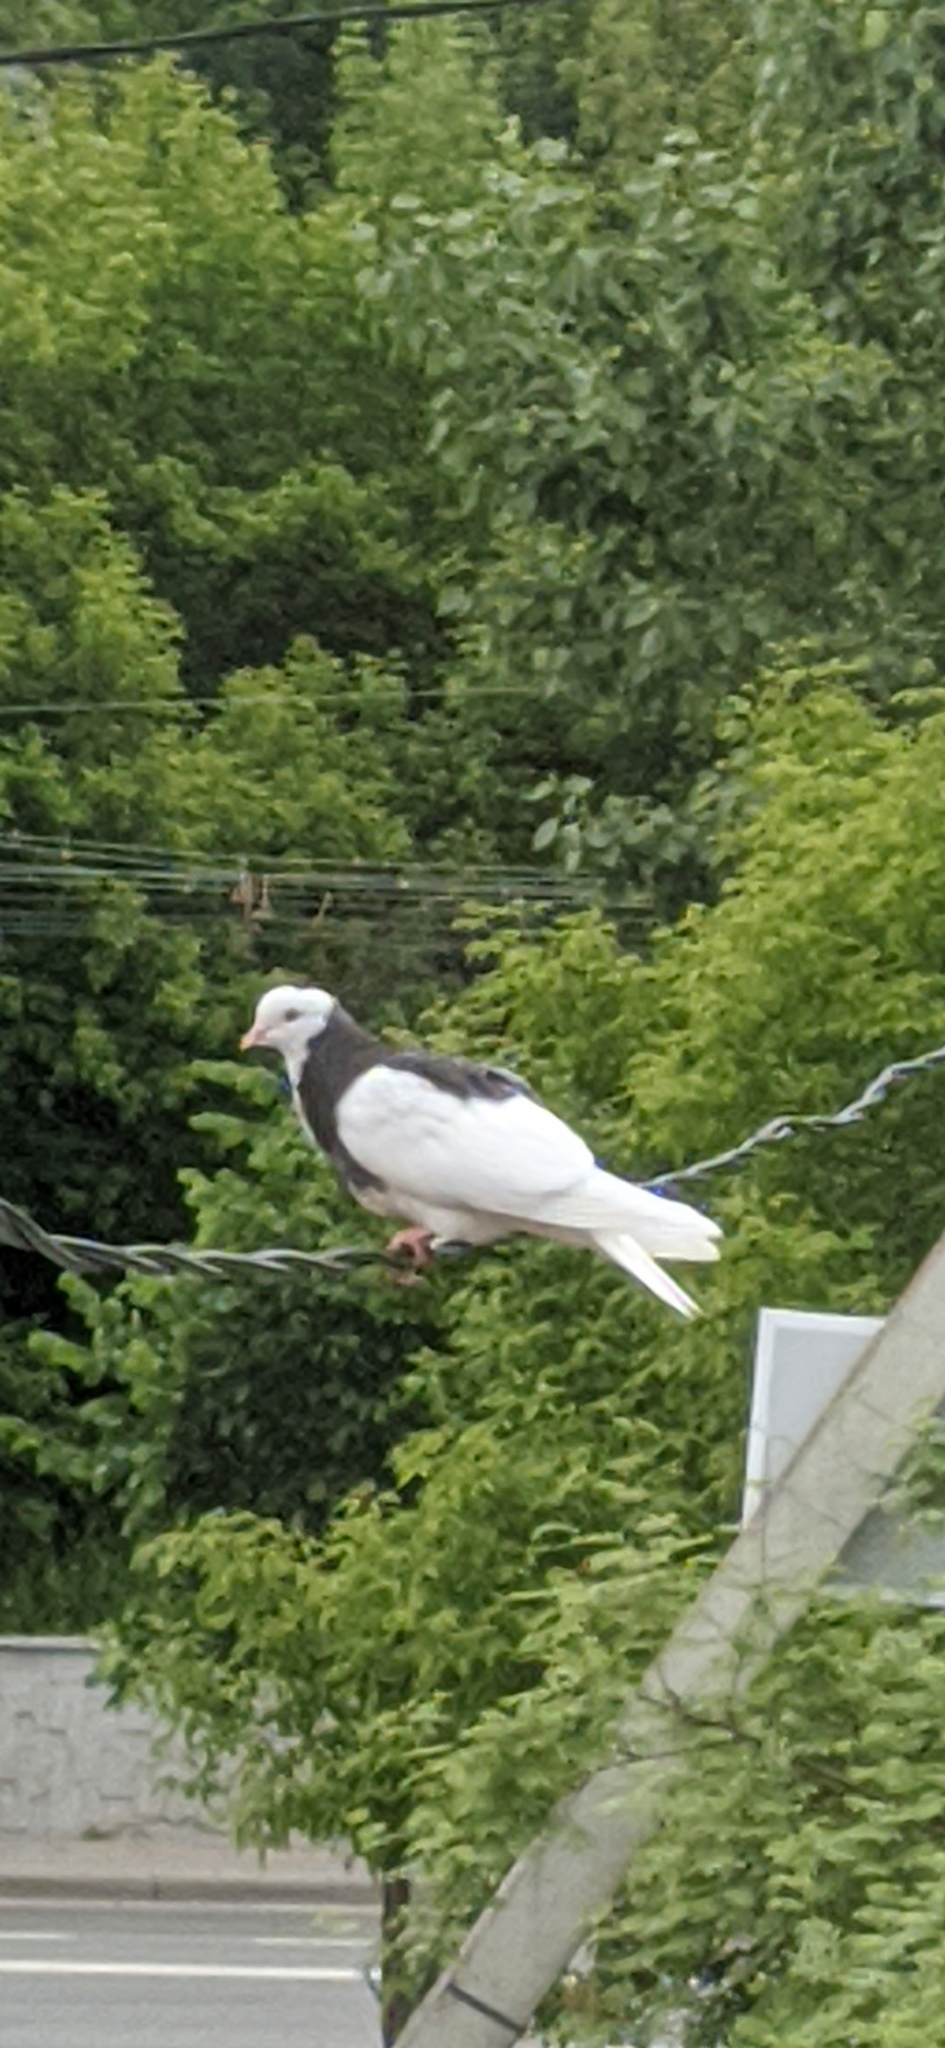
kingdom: Animalia
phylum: Chordata
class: Aves
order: Columbiformes
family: Columbidae
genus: Columba
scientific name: Columba livia
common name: Rock pigeon
